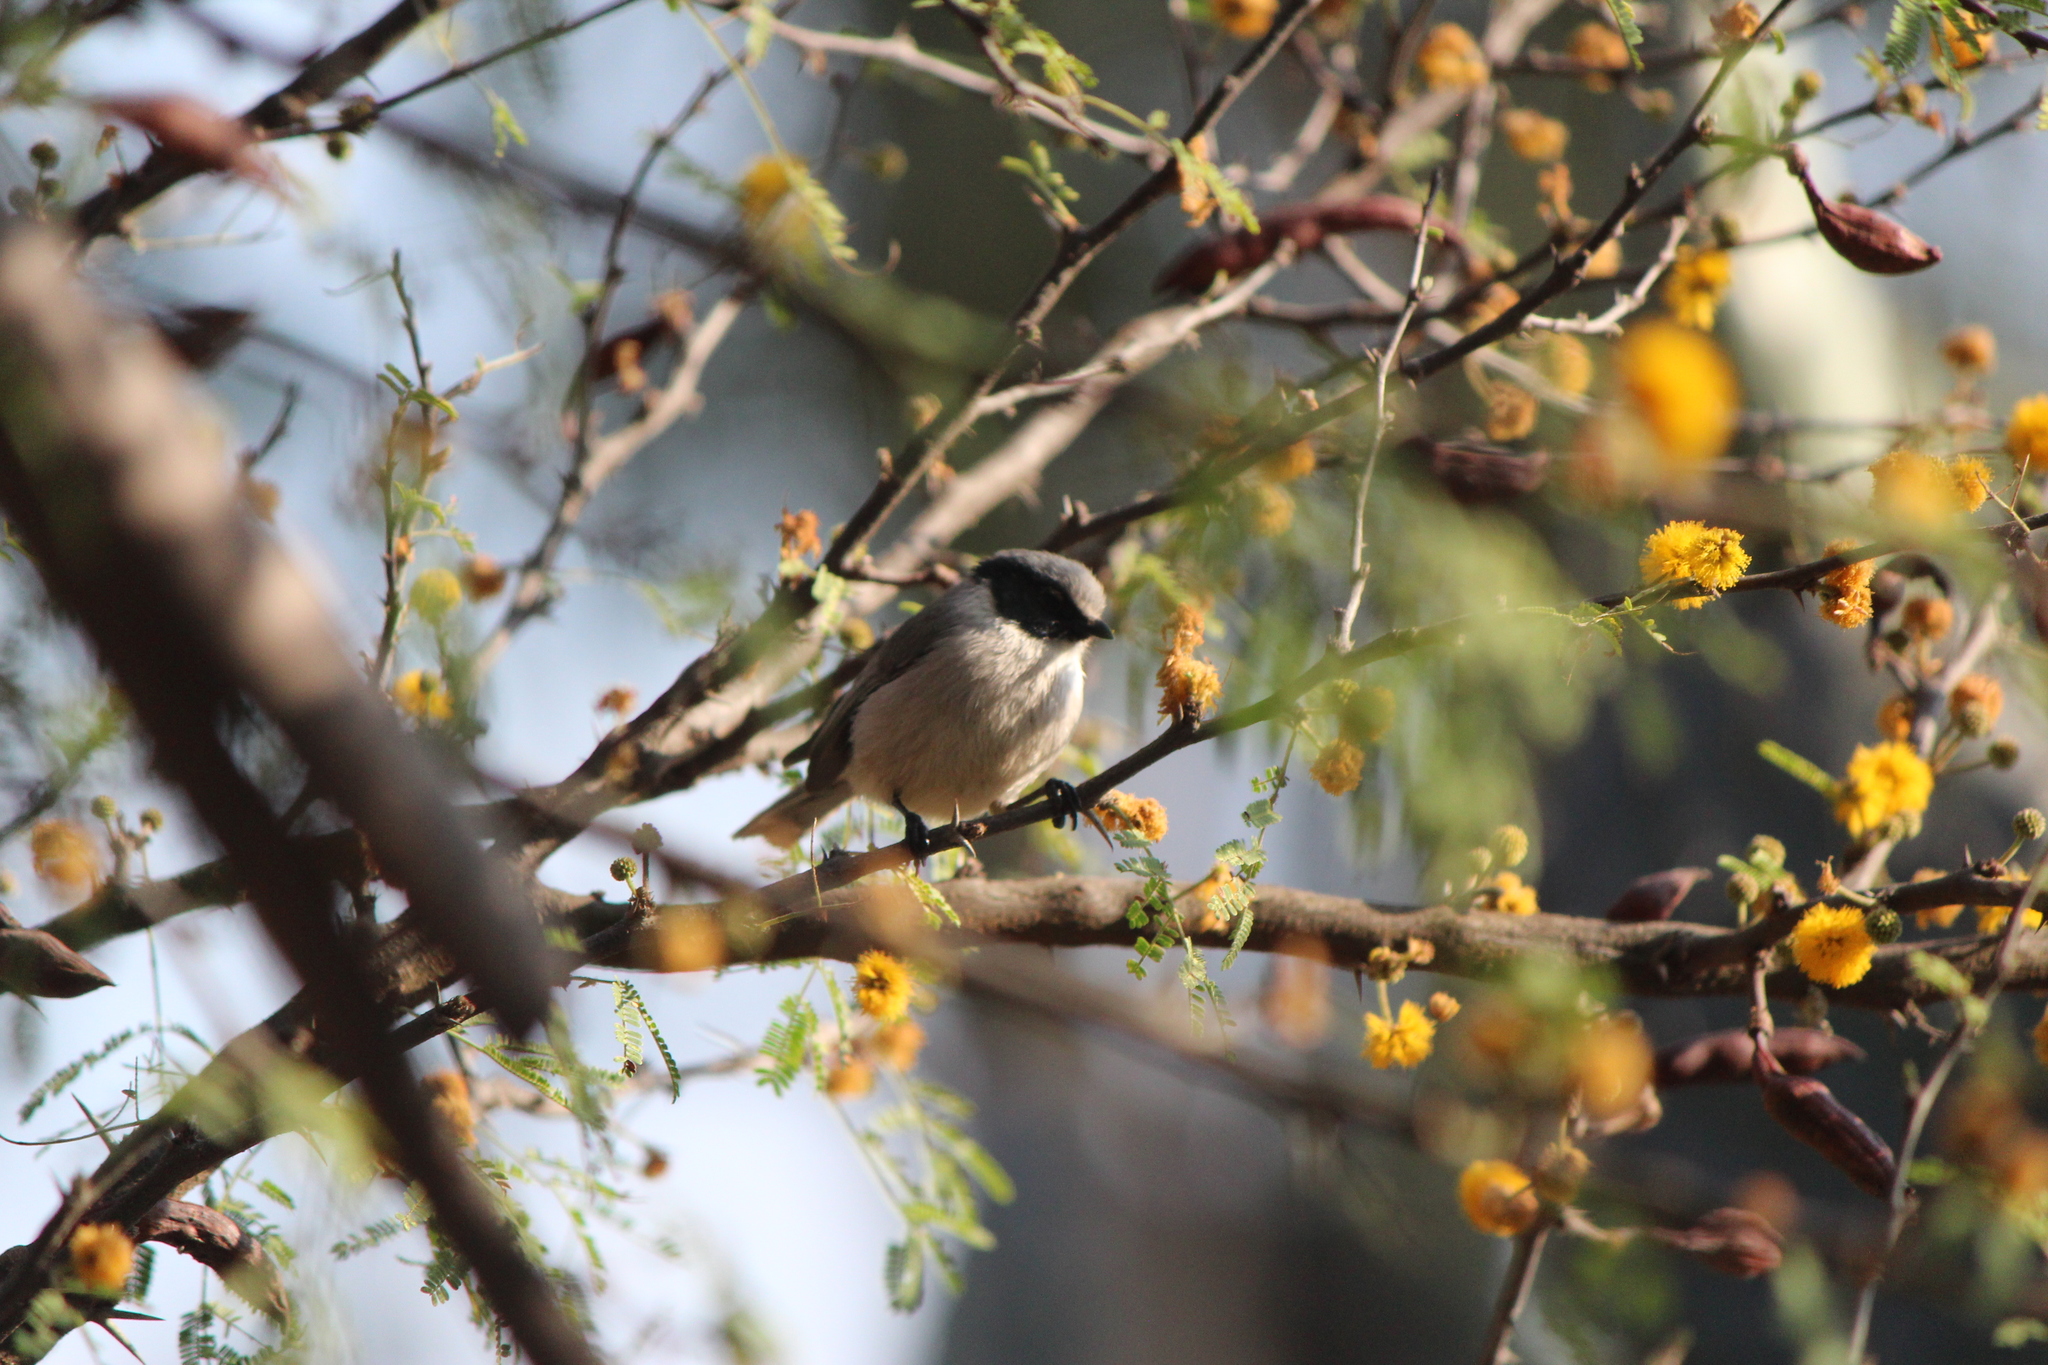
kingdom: Animalia
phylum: Chordata
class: Aves
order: Passeriformes
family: Aegithalidae
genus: Psaltriparus
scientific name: Psaltriparus minimus
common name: American bushtit
